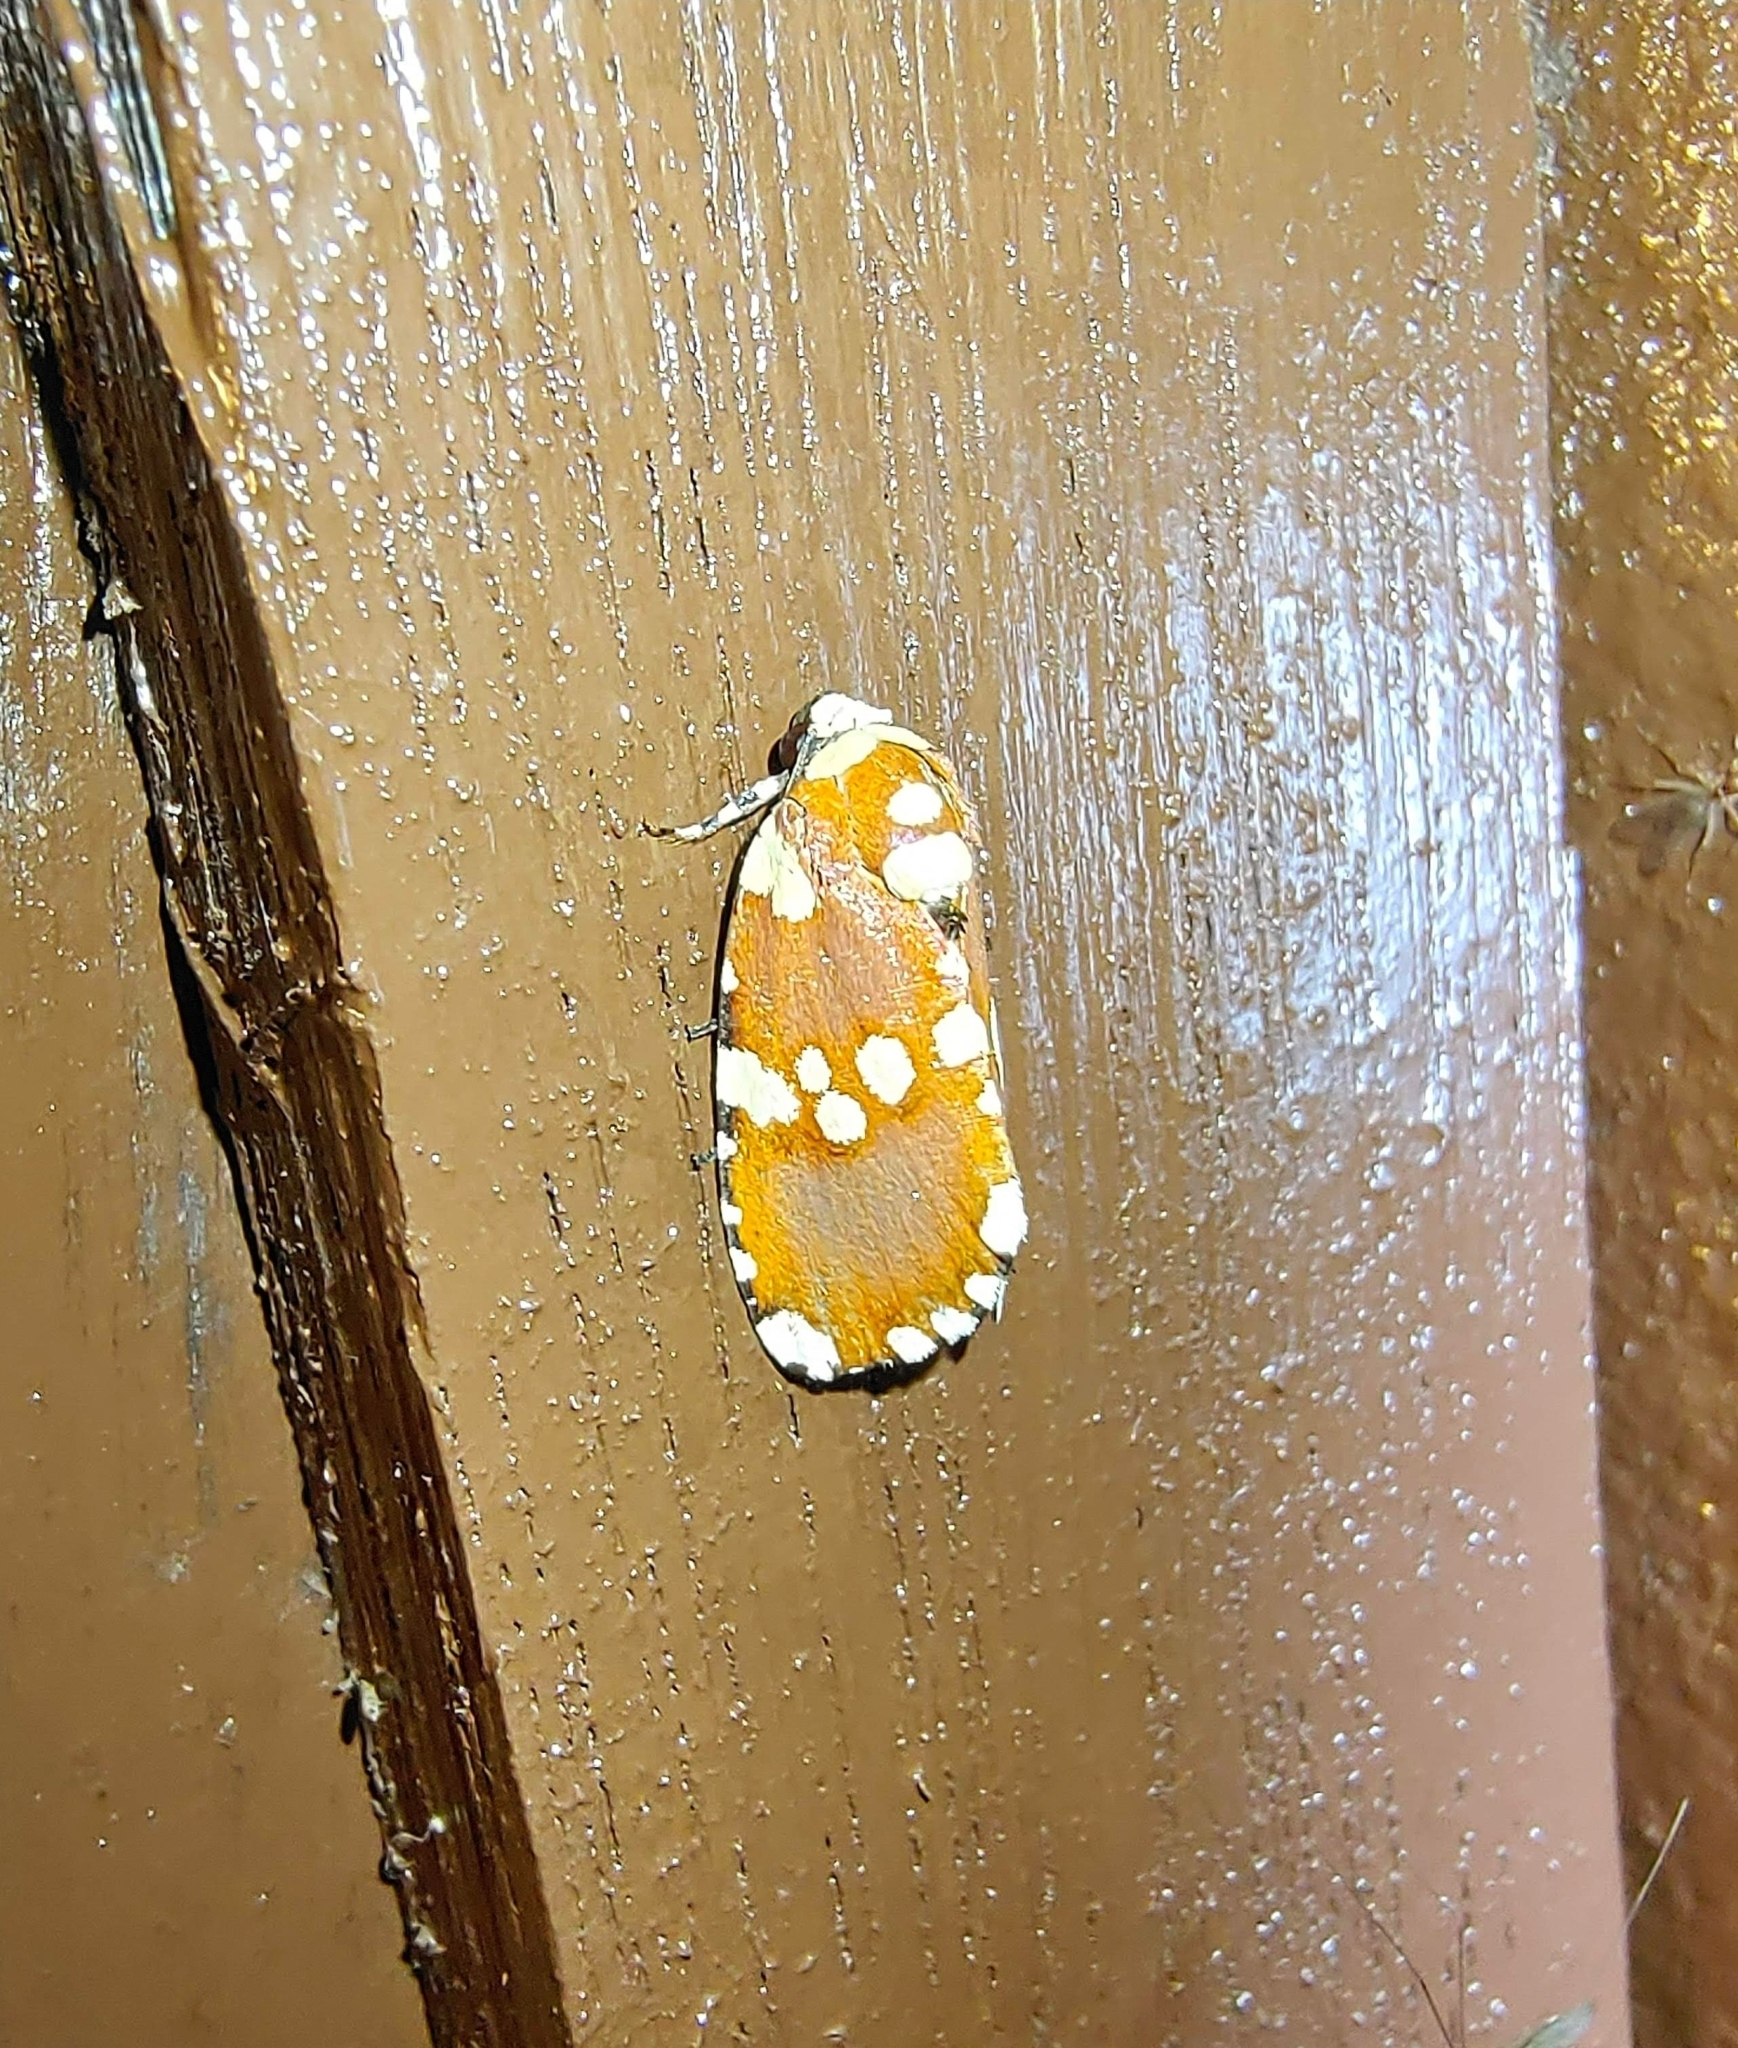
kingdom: Animalia
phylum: Arthropoda
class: Insecta
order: Lepidoptera
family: Noctuidae
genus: Yepcalphis
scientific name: Yepcalphis dilectissima
